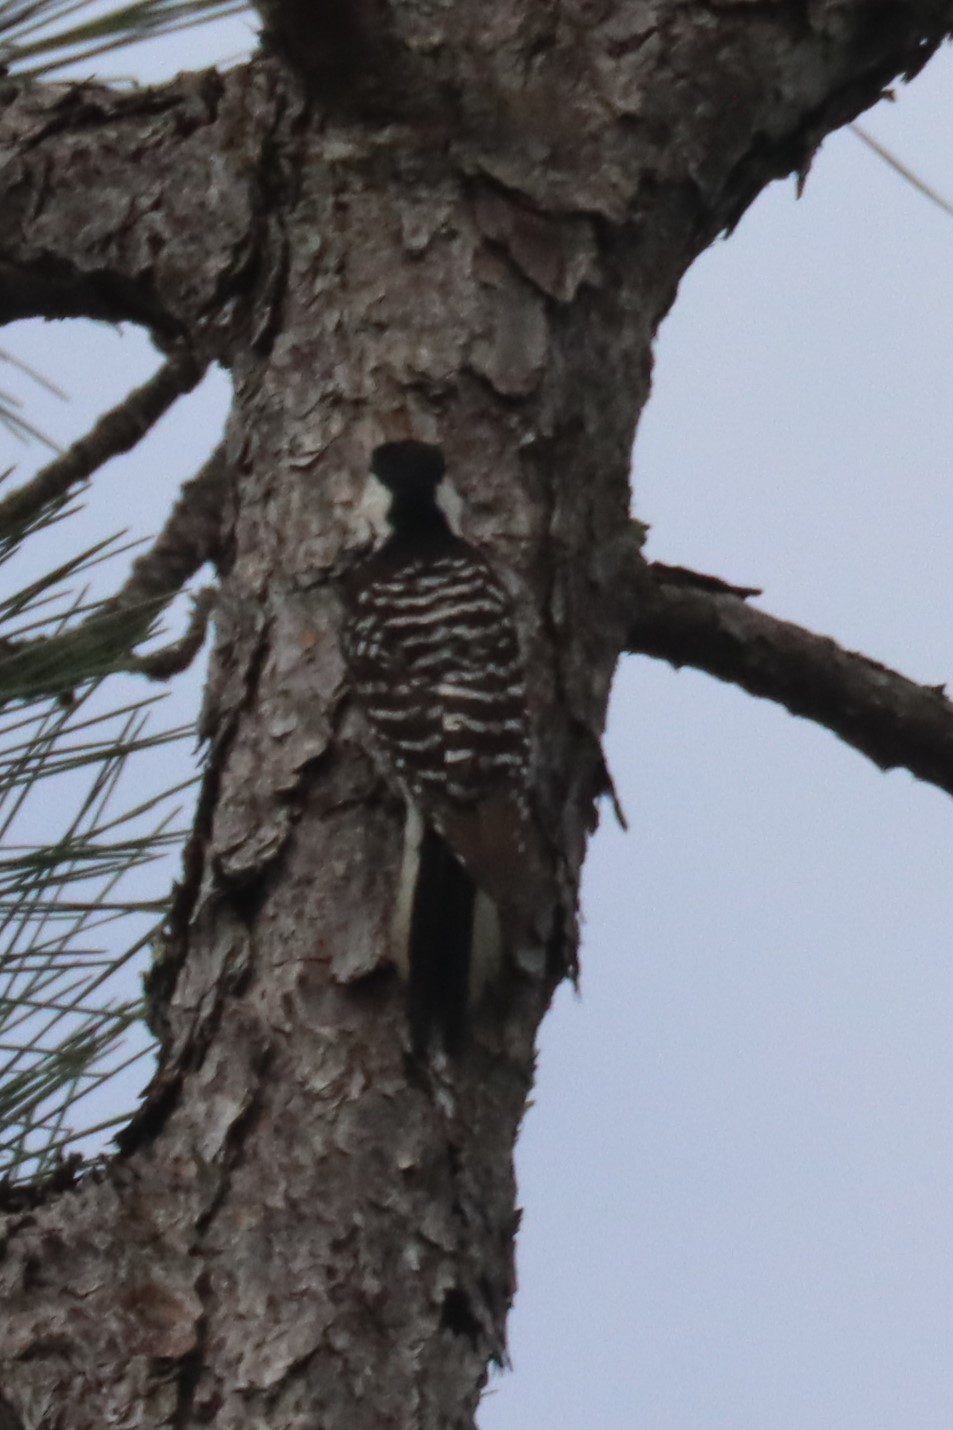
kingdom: Animalia
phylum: Chordata
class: Aves
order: Piciformes
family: Picidae
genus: Leuconotopicus
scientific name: Leuconotopicus borealis
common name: Red-cockaded woodpecker
